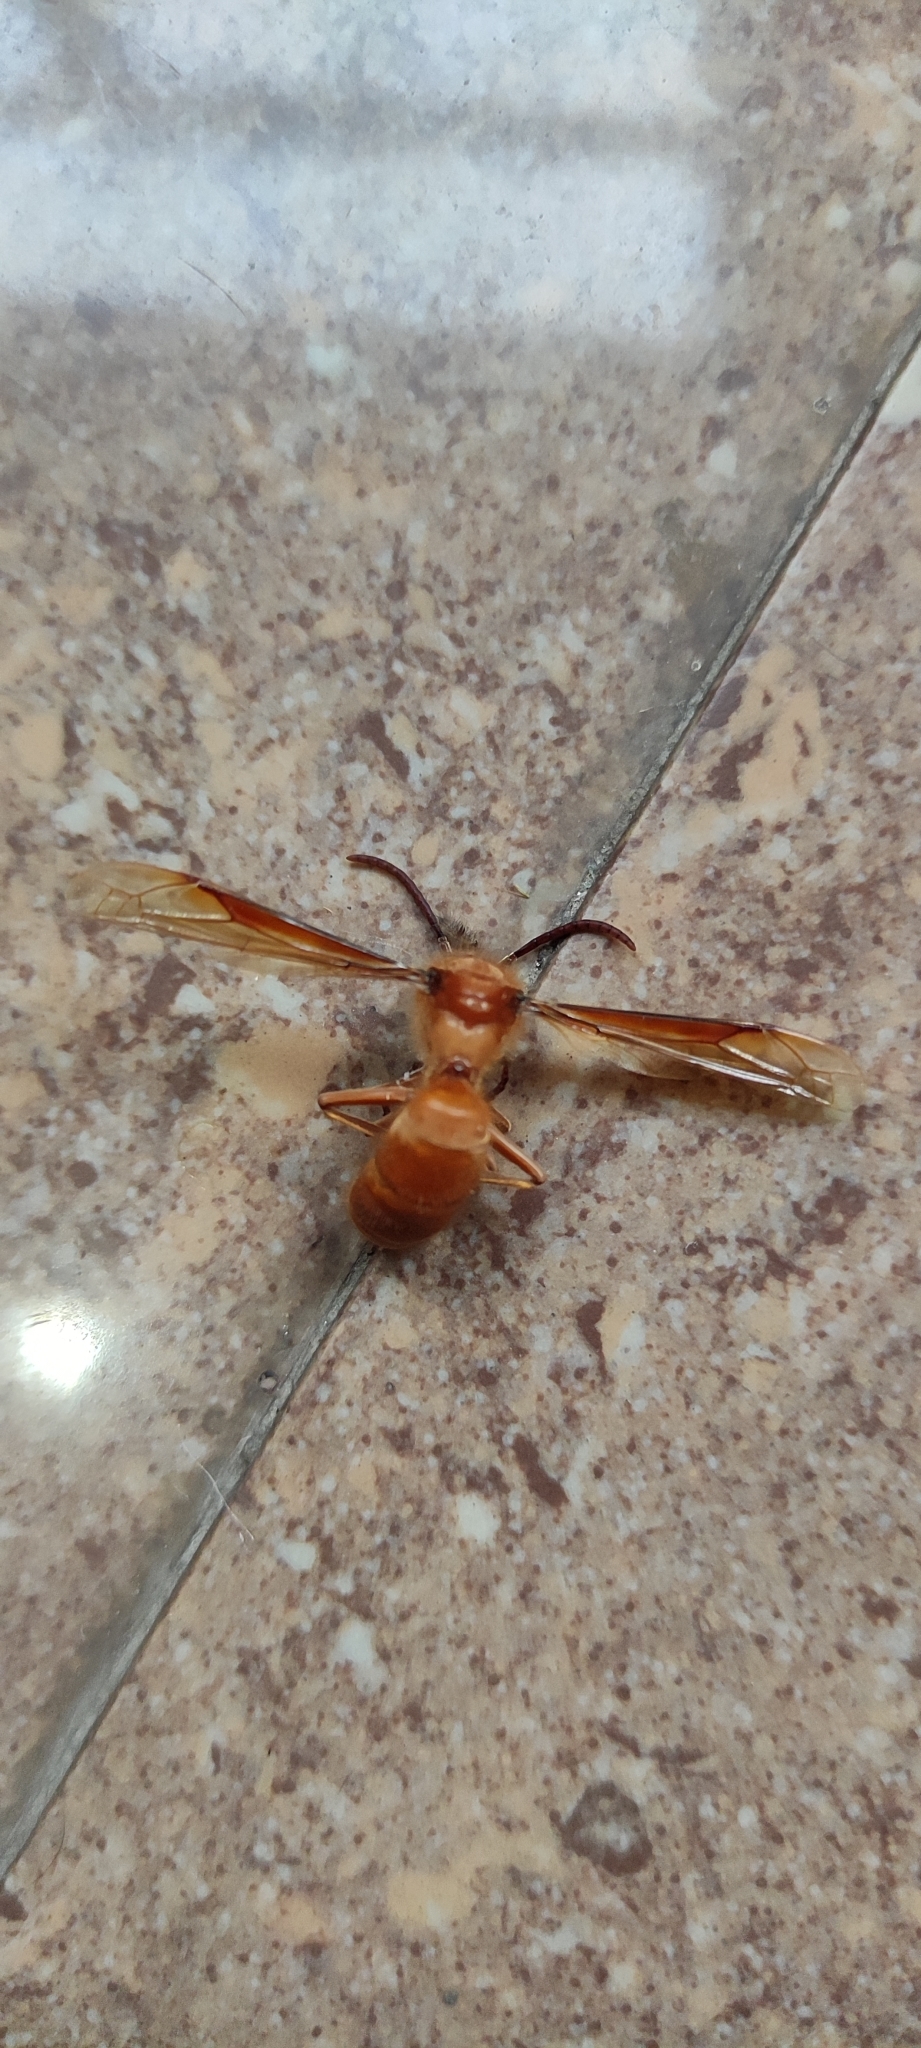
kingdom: Animalia
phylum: Arthropoda
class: Insecta
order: Hymenoptera
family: Vespidae
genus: Provespa
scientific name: Provespa barthelemyi
